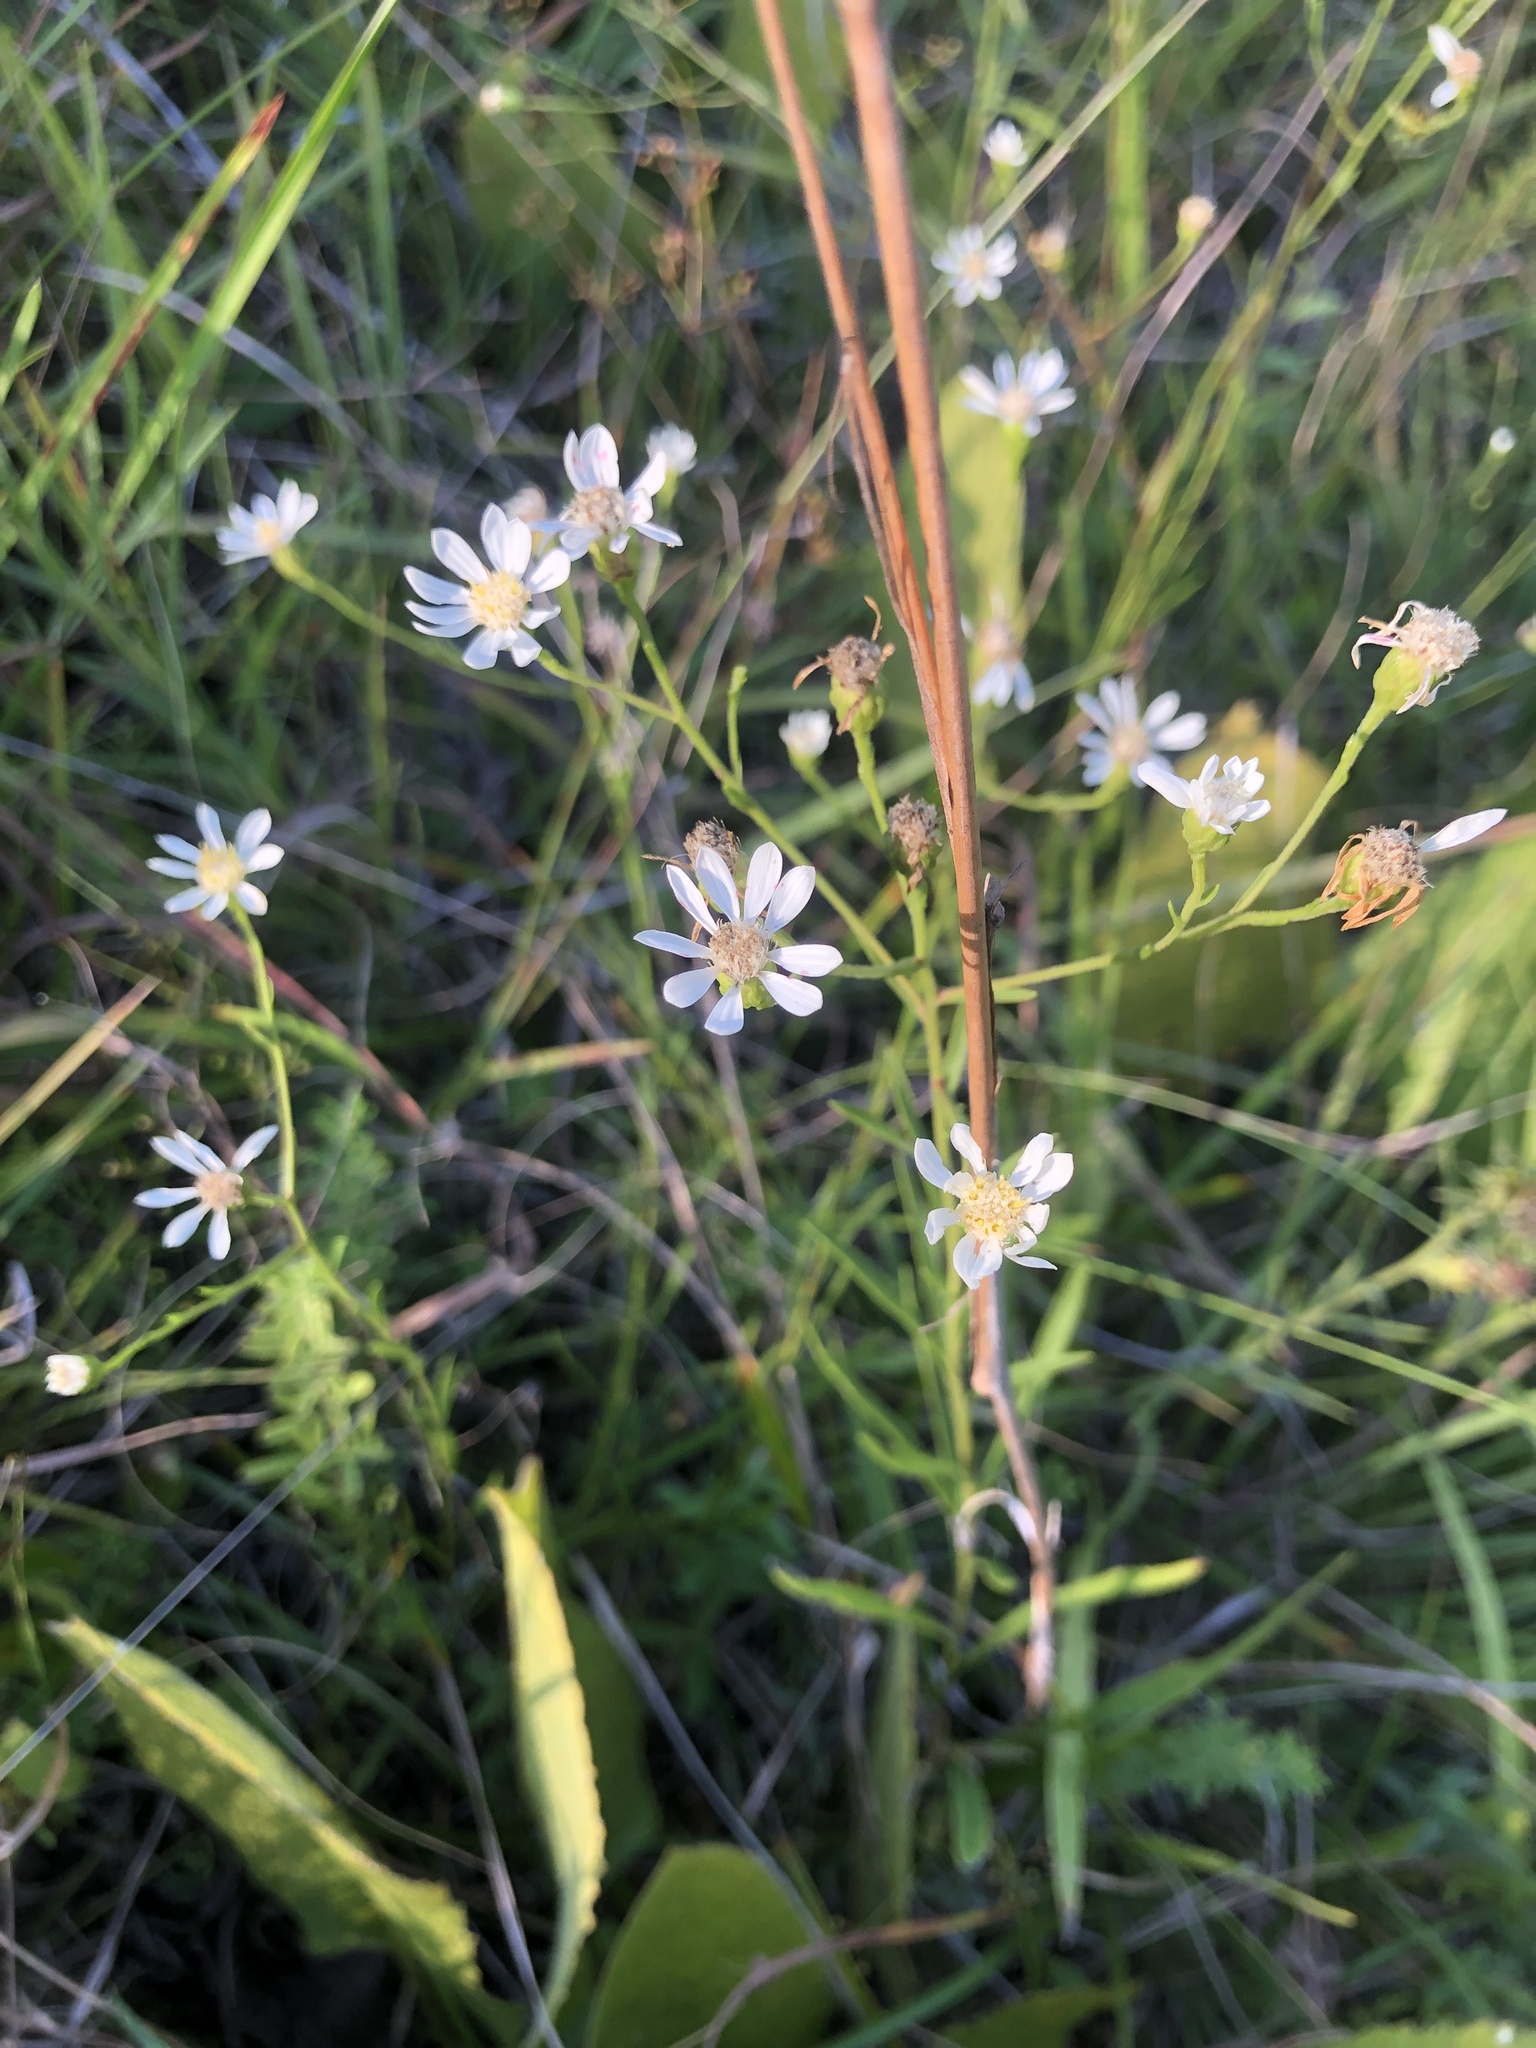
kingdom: Plantae
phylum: Tracheophyta
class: Magnoliopsida
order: Asterales
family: Asteraceae
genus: Solidago
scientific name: Solidago ptarmicoides
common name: White flat-top goldenrod
